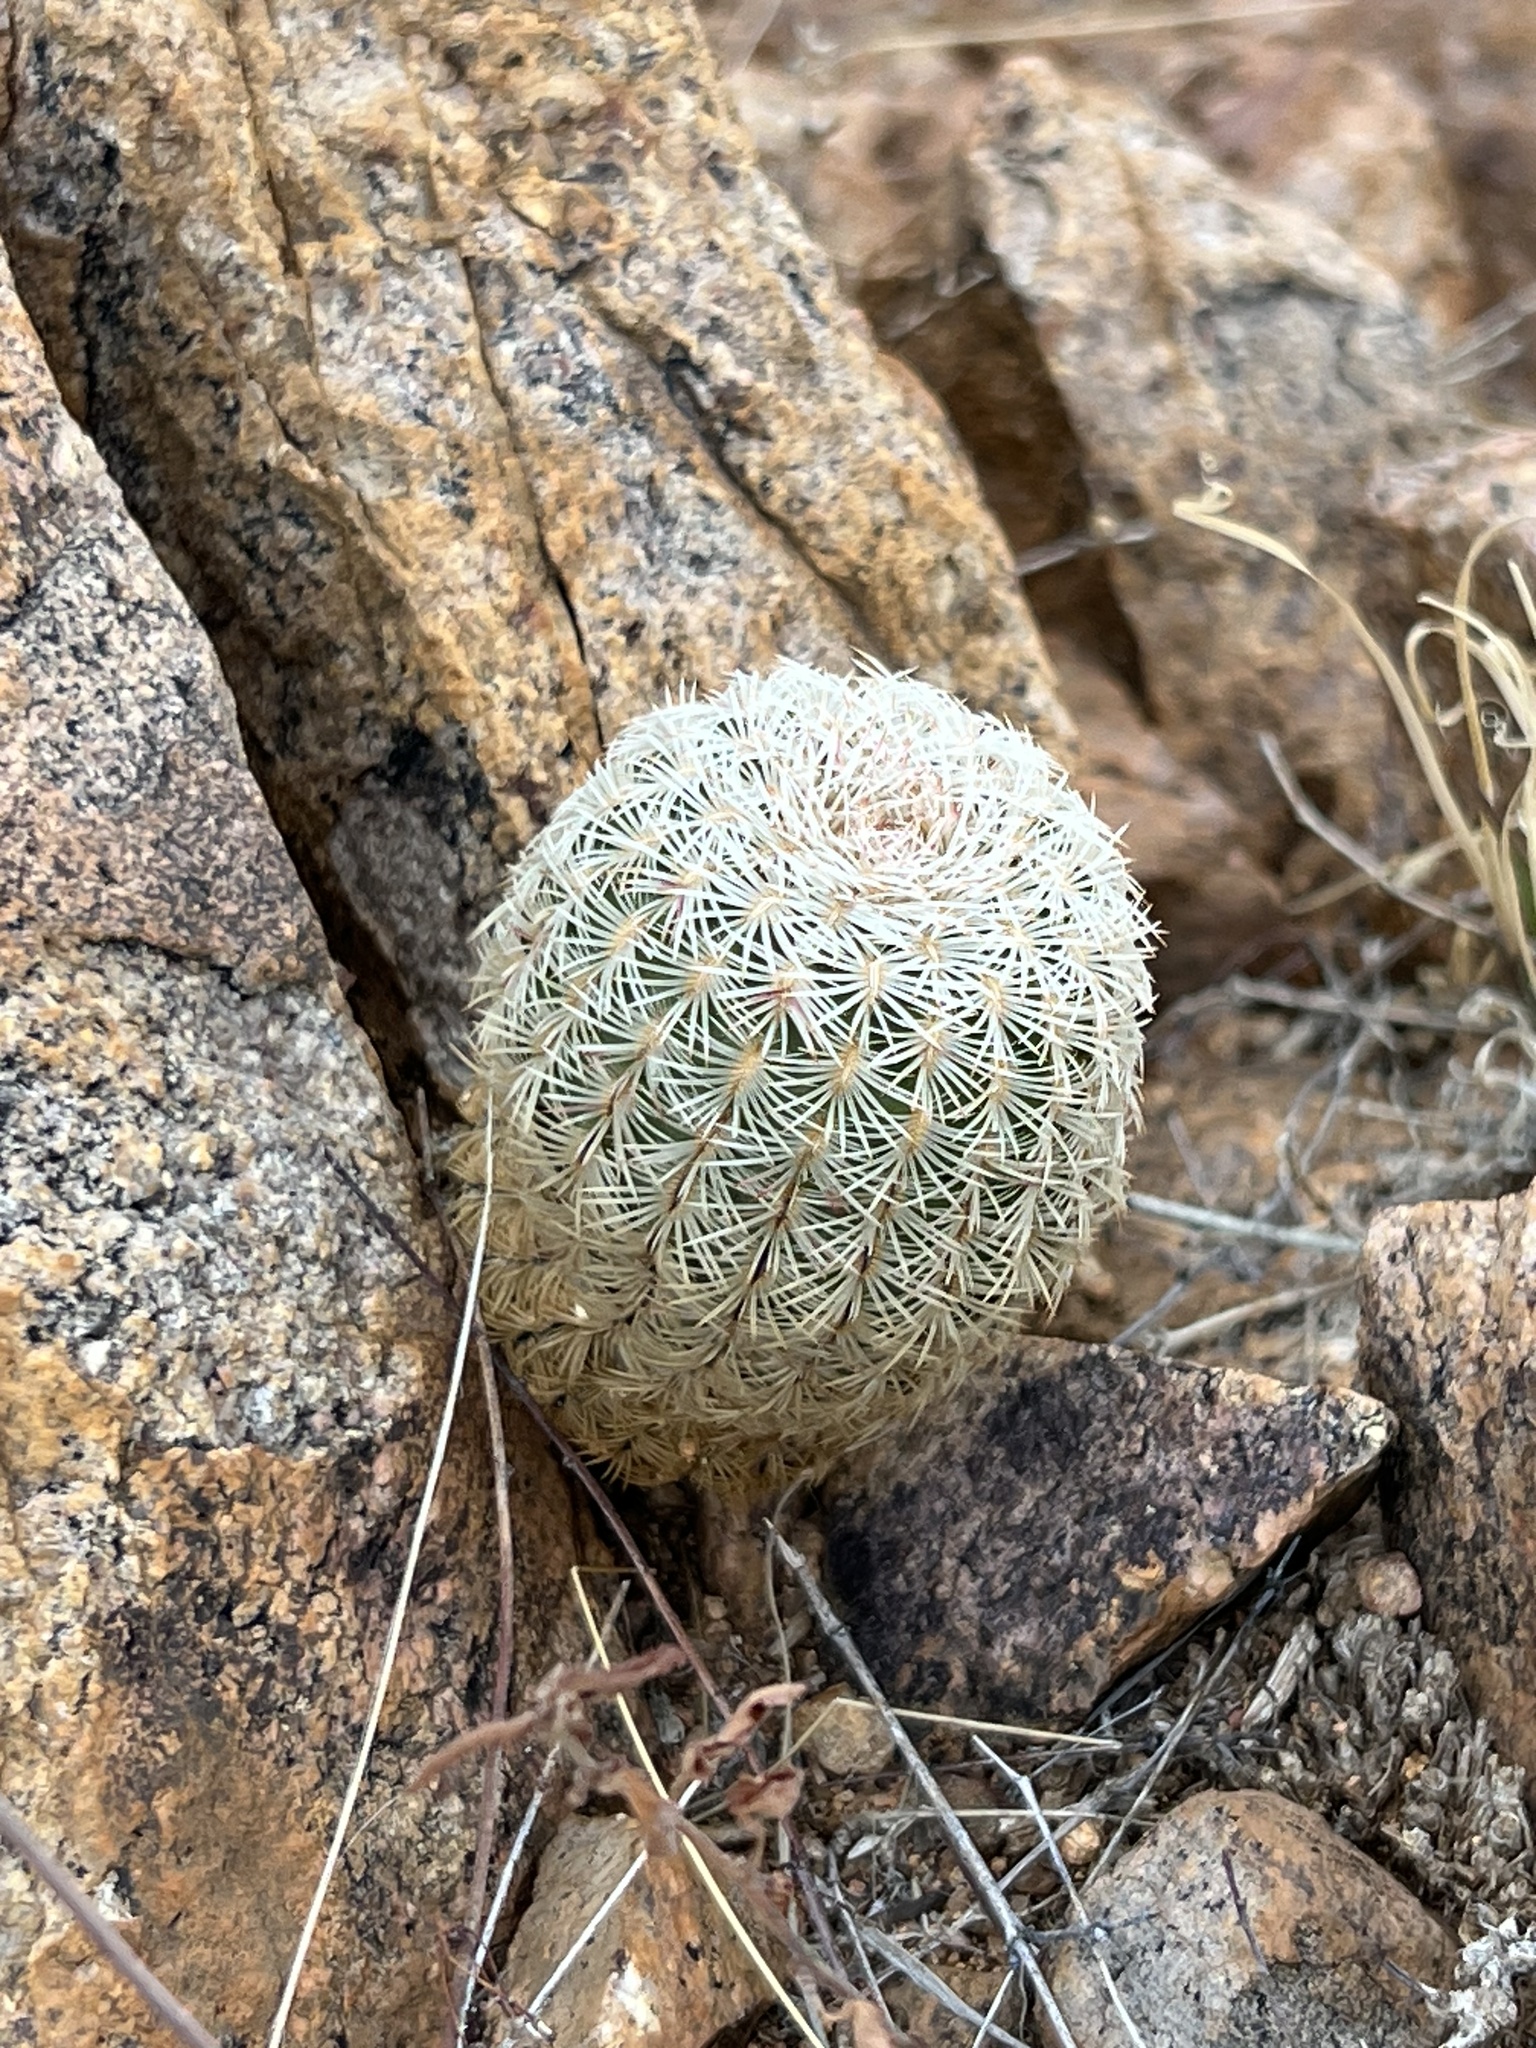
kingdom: Plantae
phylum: Tracheophyta
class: Magnoliopsida
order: Caryophyllales
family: Cactaceae
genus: Echinocereus
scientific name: Echinocereus rigidissimus
